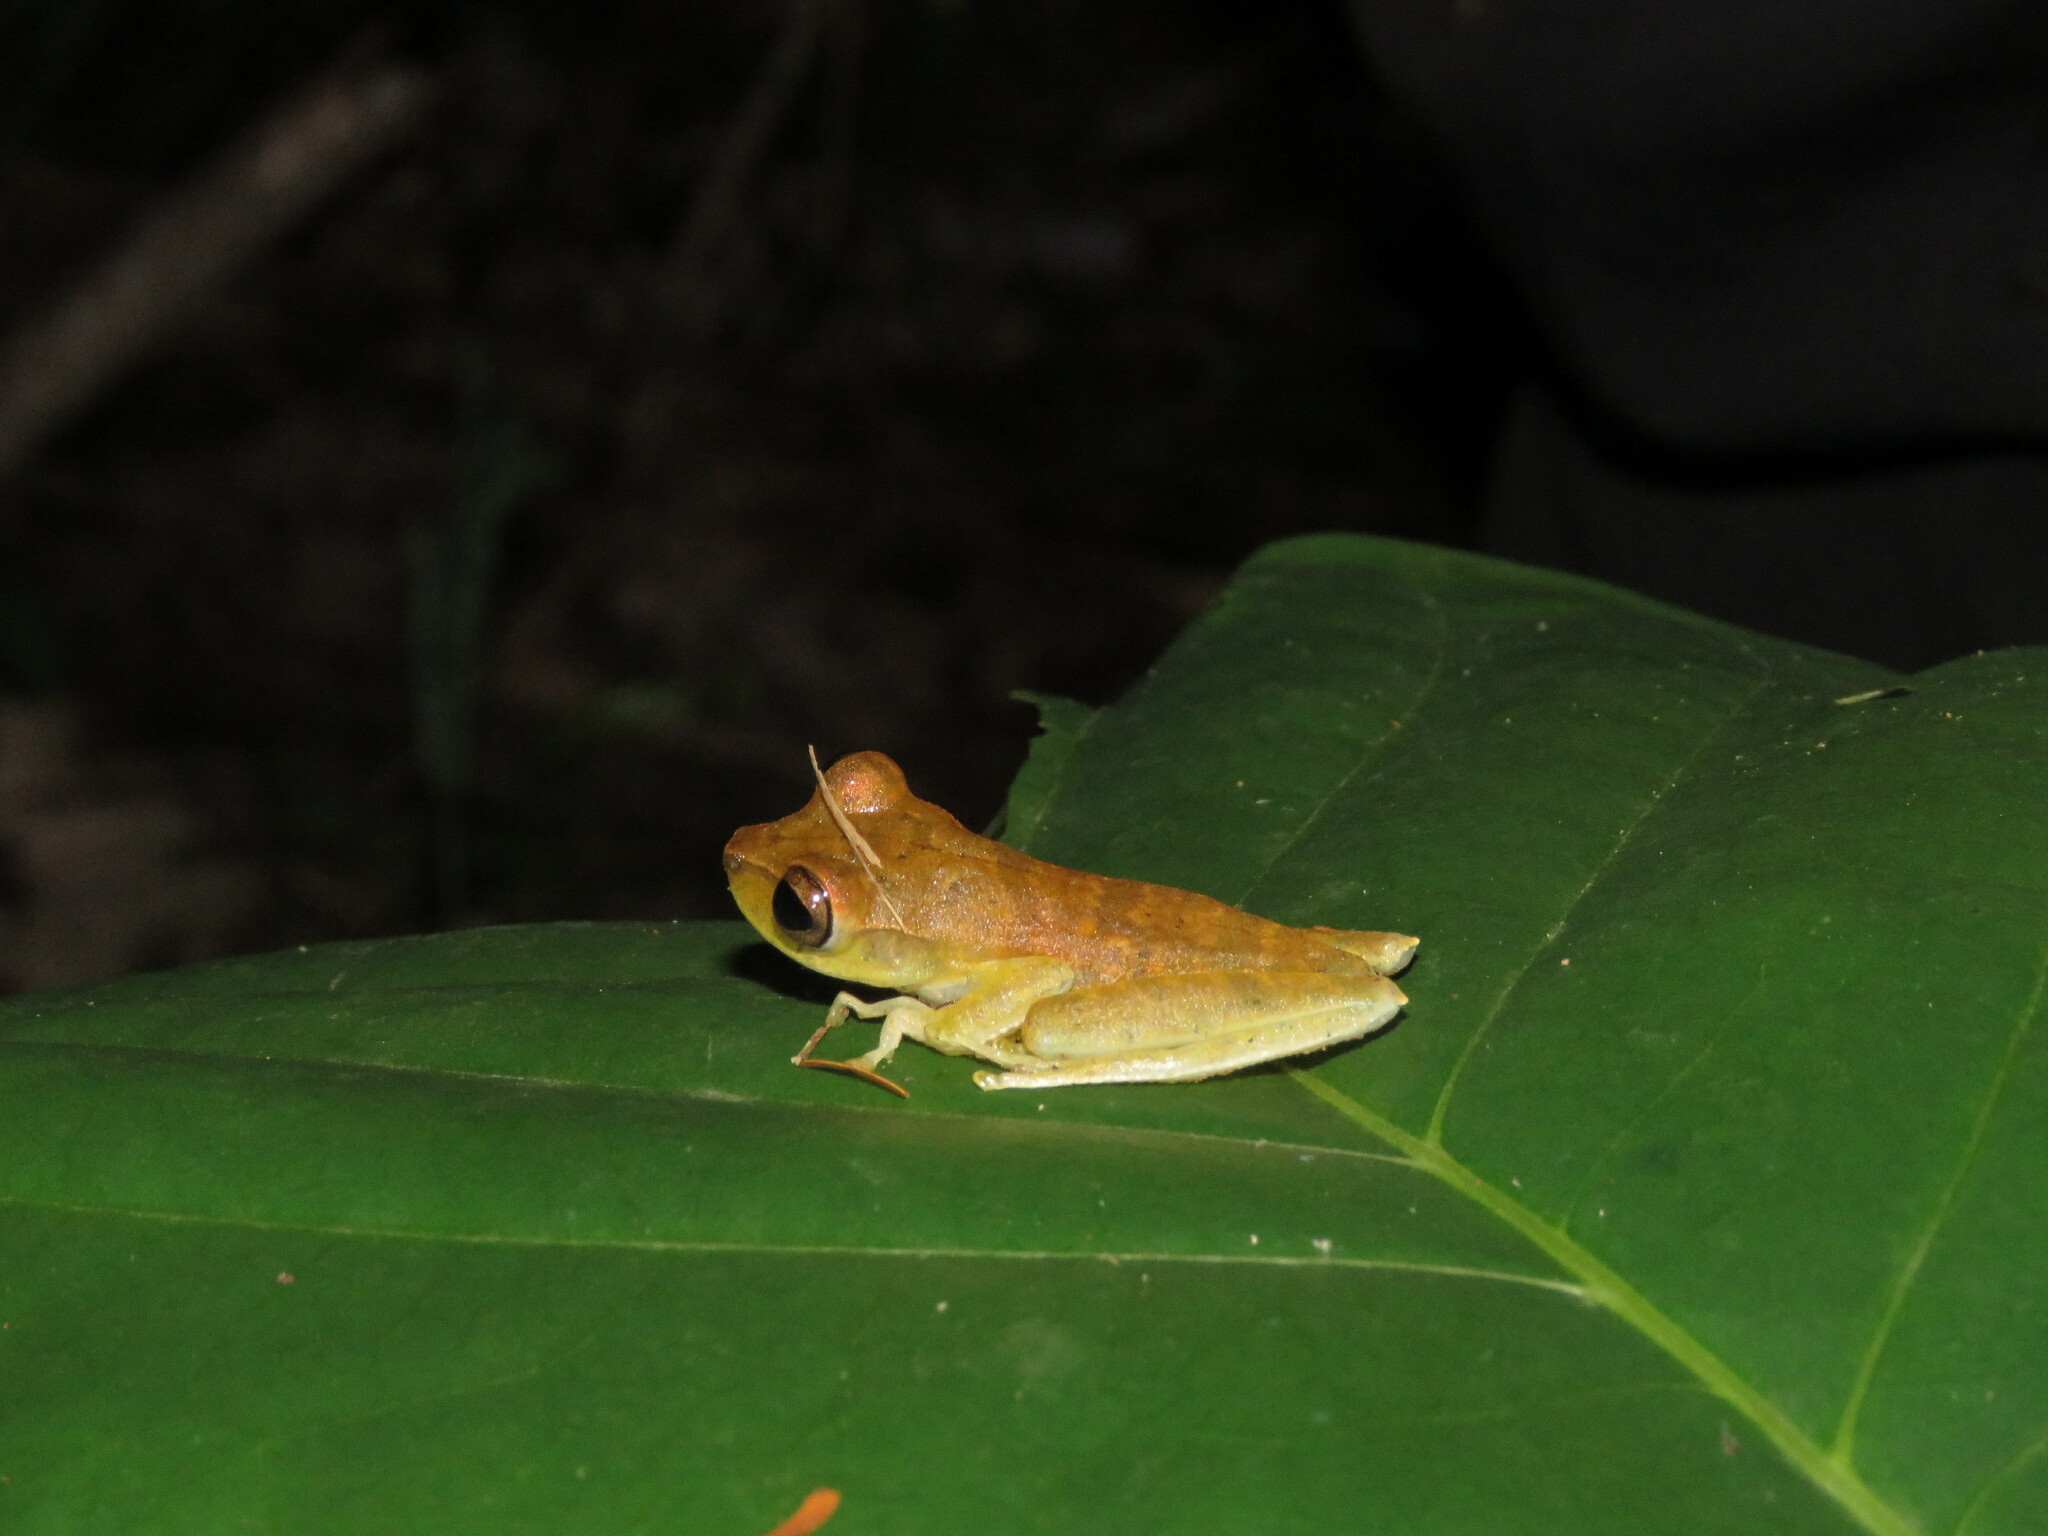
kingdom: Animalia
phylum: Chordata
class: Amphibia
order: Anura
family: Hylidae
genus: Boana
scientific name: Boana steinbachi
